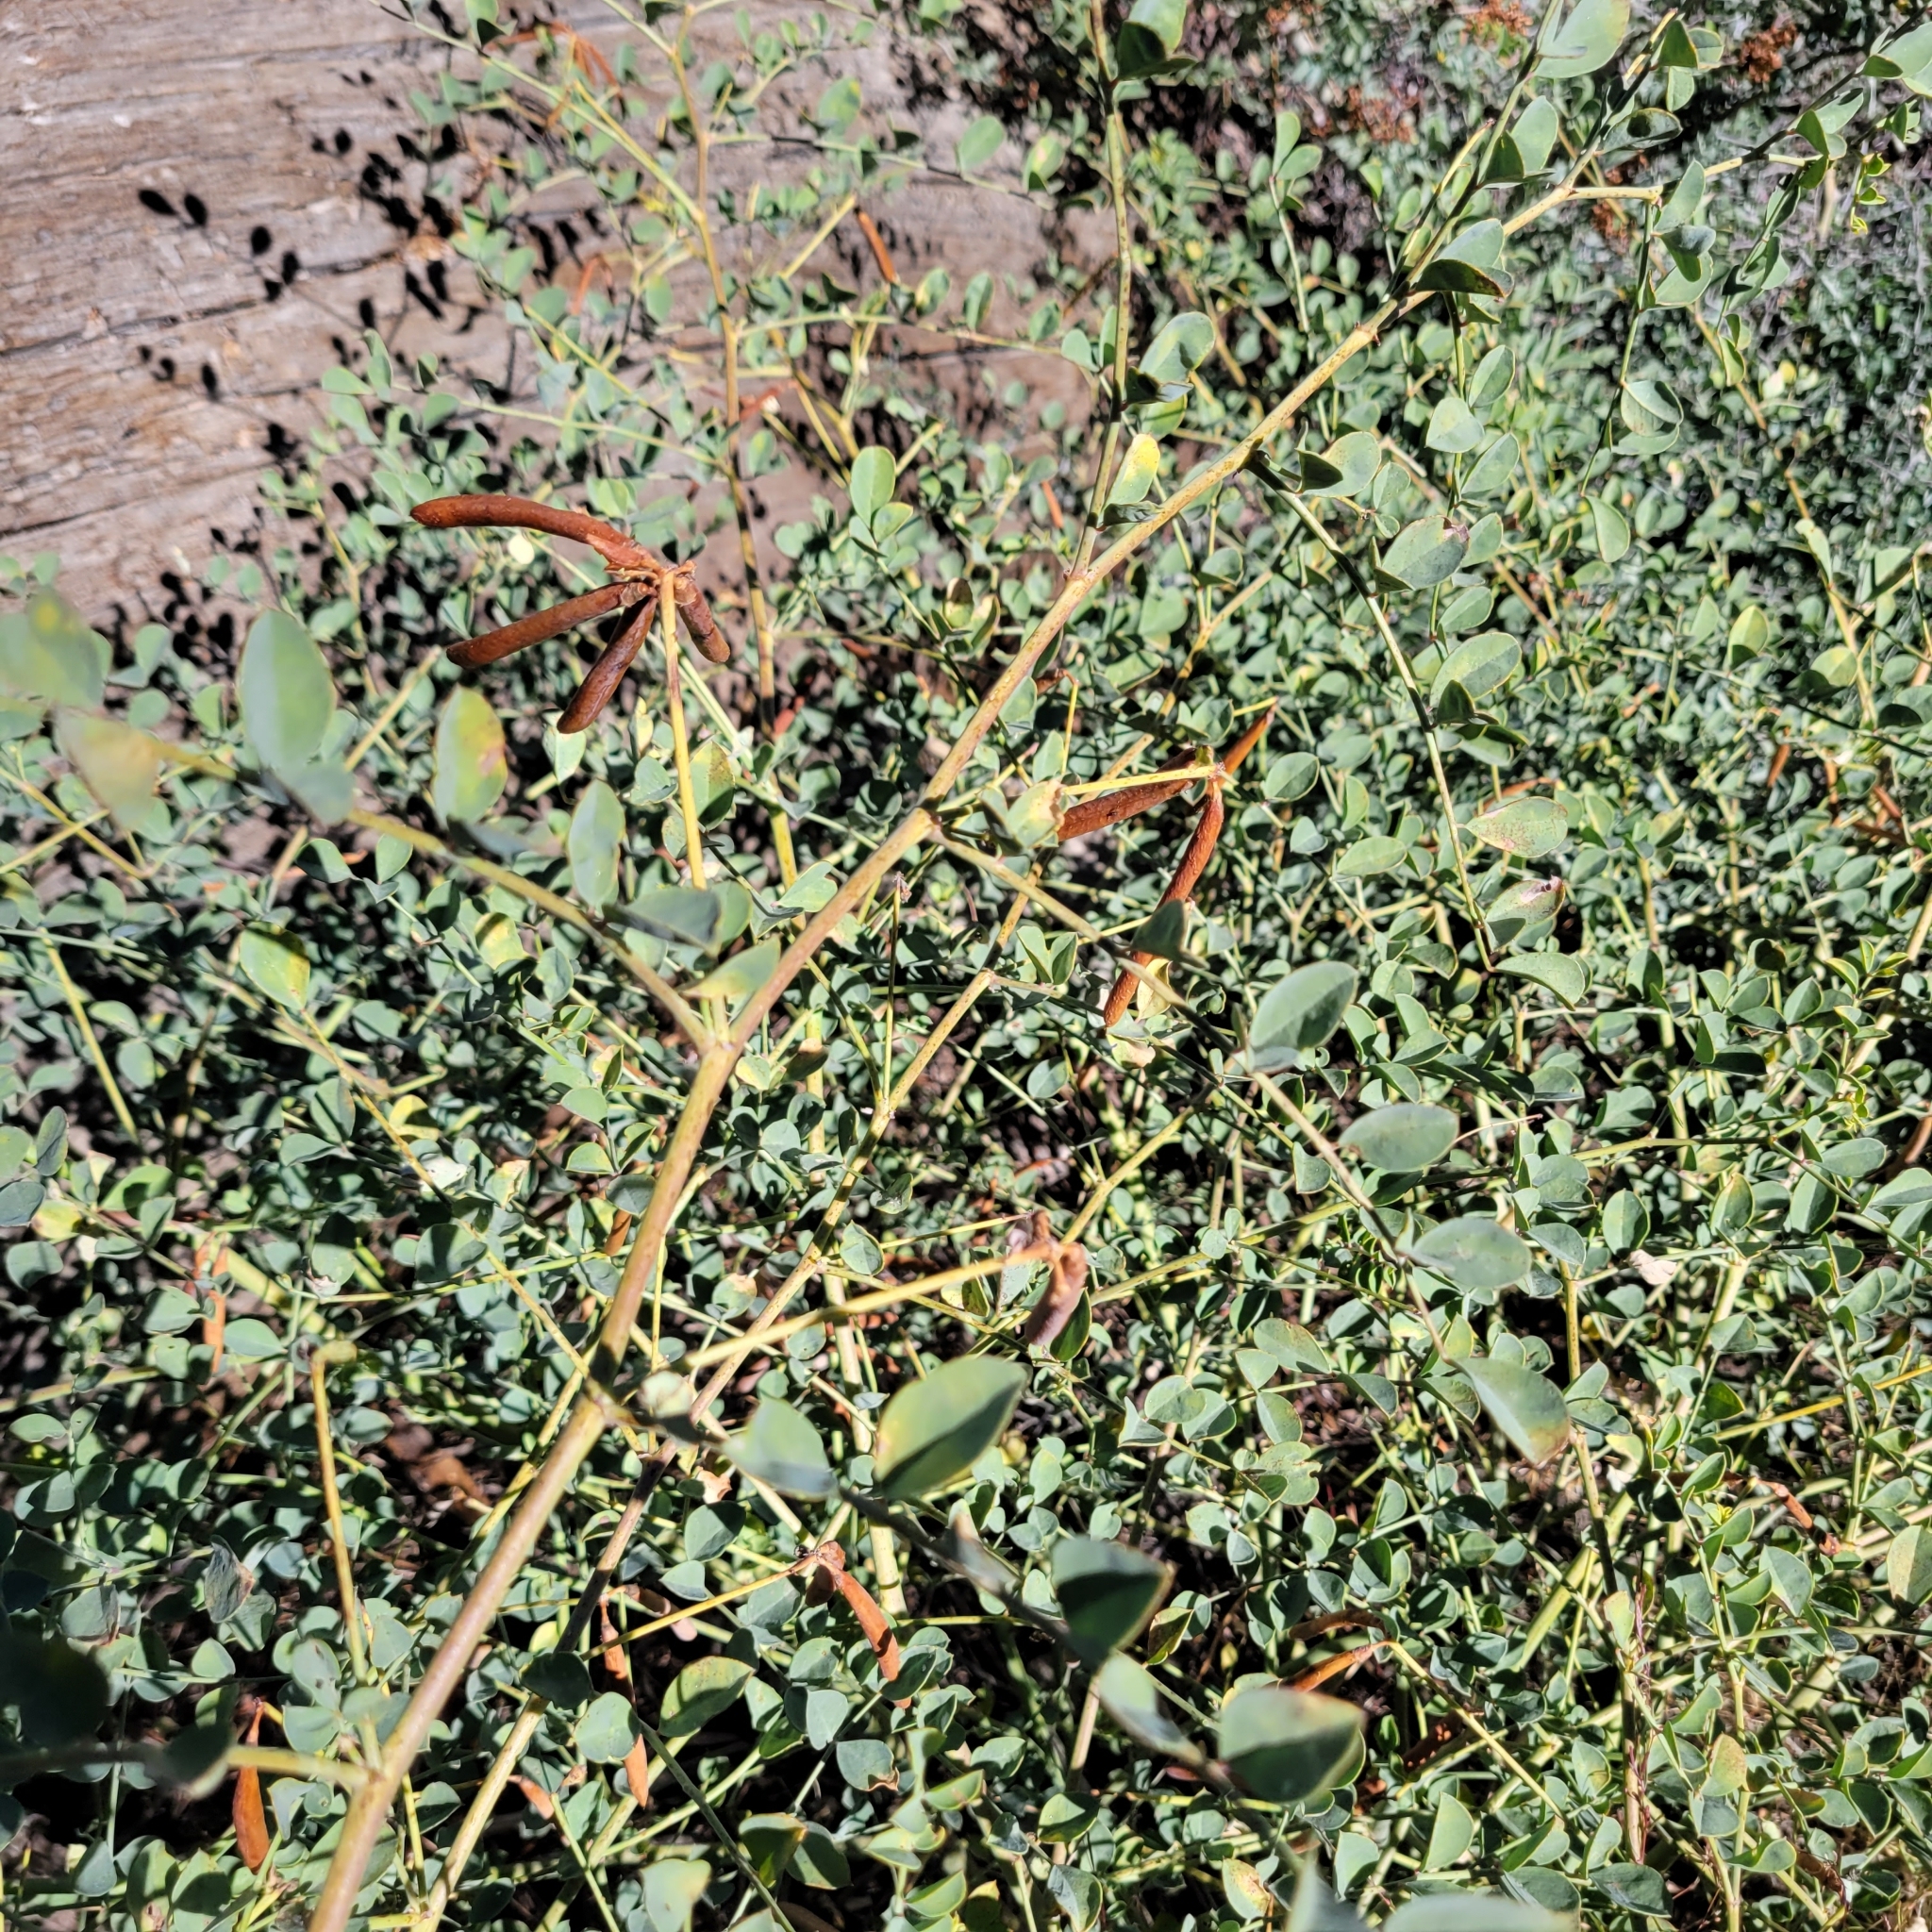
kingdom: Plantae
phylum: Tracheophyta
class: Magnoliopsida
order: Fabales
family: Fabaceae
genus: Hosackia
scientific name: Hosackia crassifolia
